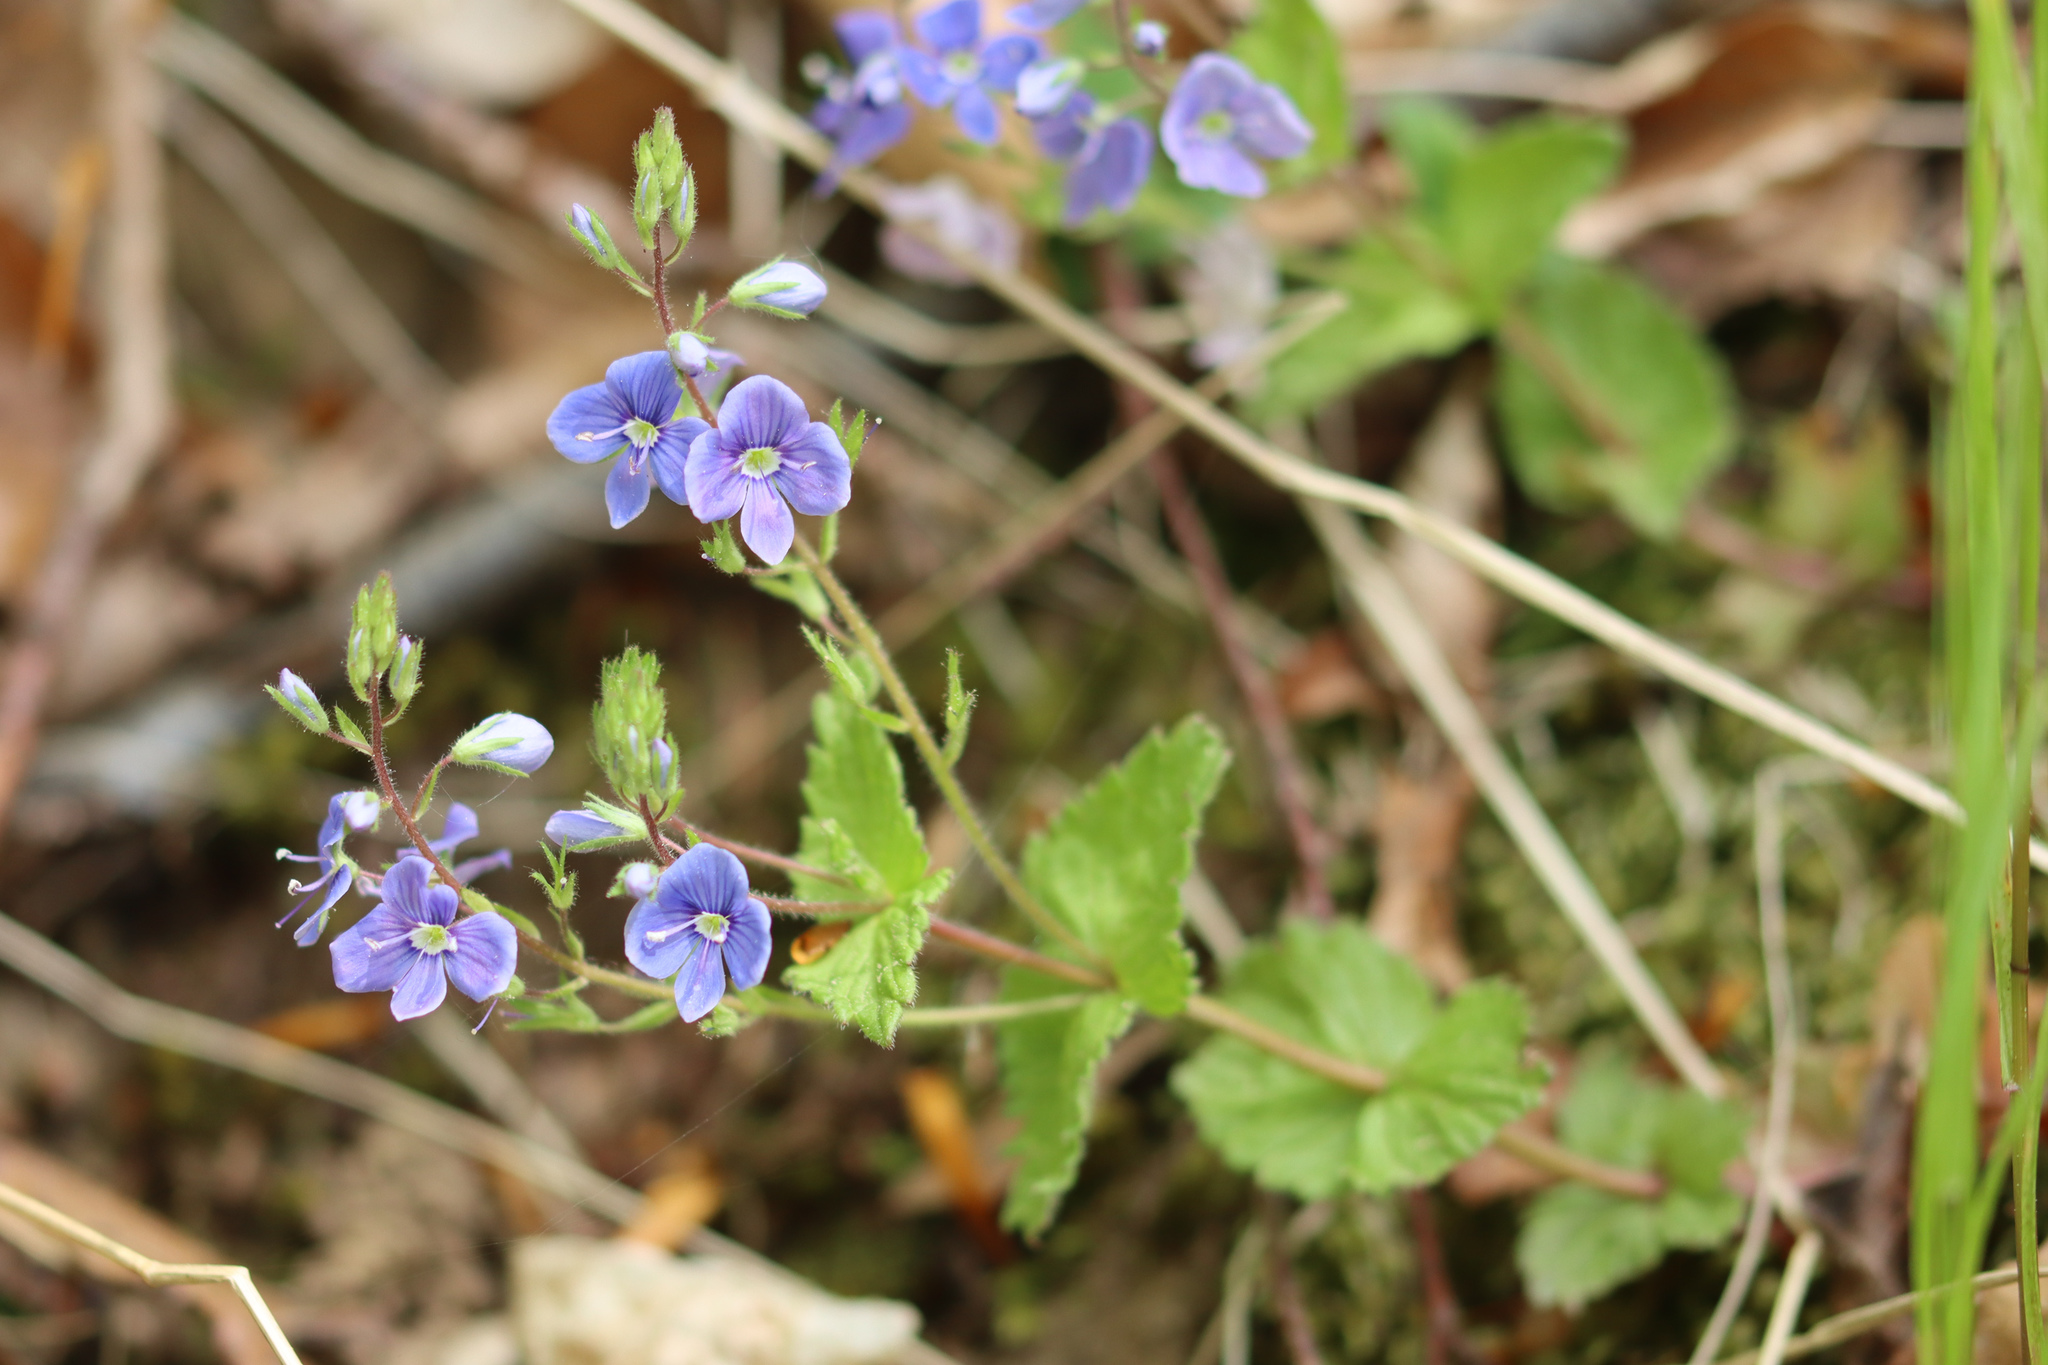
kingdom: Plantae
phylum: Tracheophyta
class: Magnoliopsida
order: Lamiales
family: Plantaginaceae
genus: Veronica
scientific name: Veronica chamaedrys
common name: Germander speedwell
